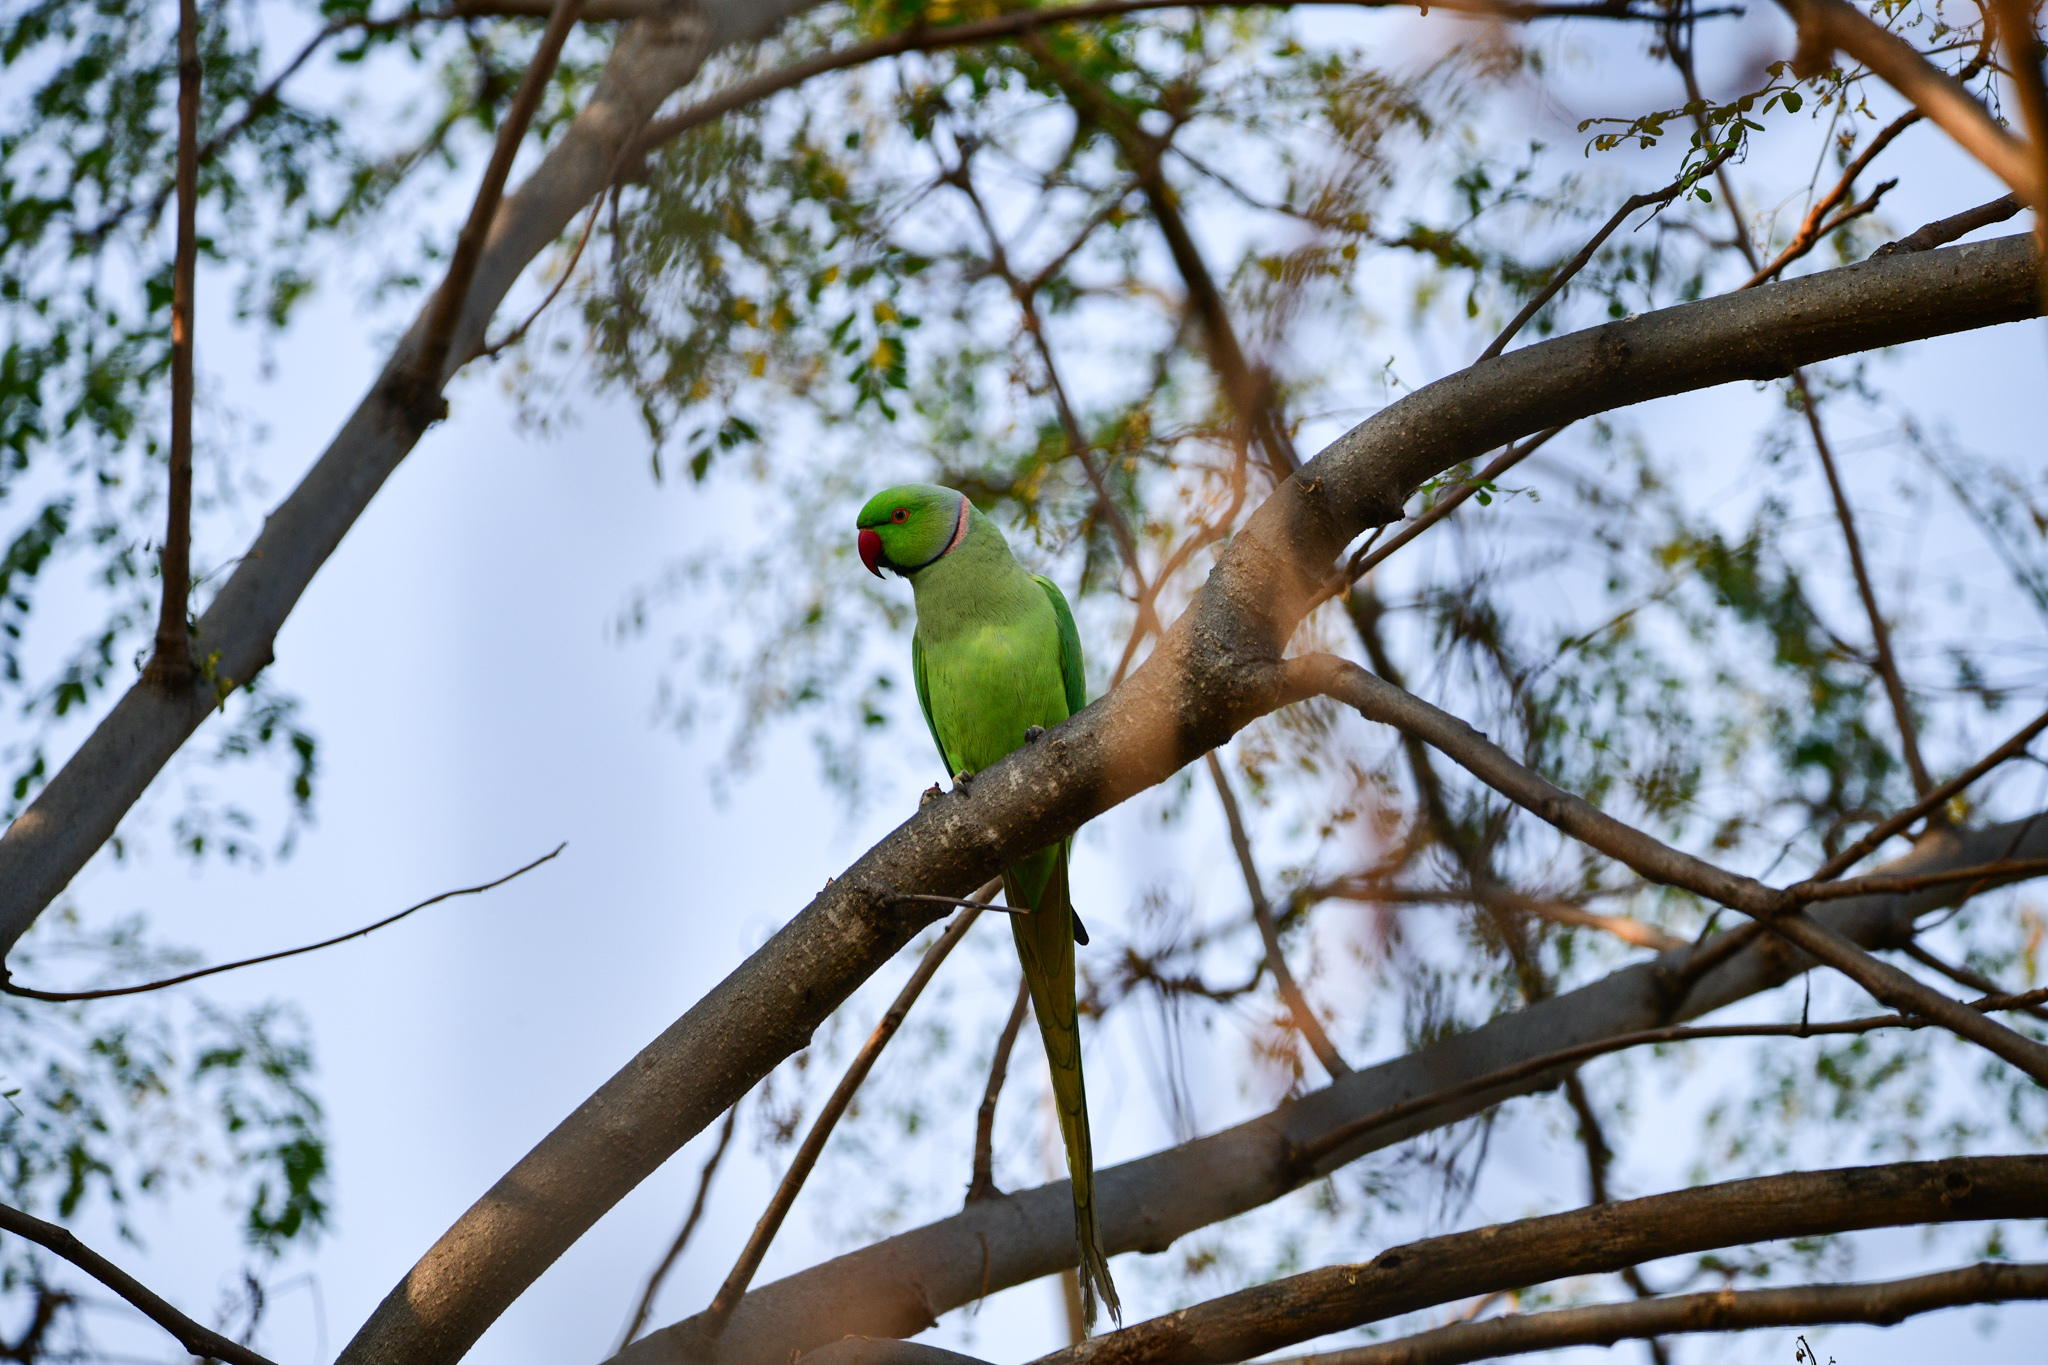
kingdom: Animalia
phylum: Chordata
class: Aves
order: Psittaciformes
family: Psittacidae
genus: Psittacula
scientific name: Psittacula krameri
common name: Rose-ringed parakeet
